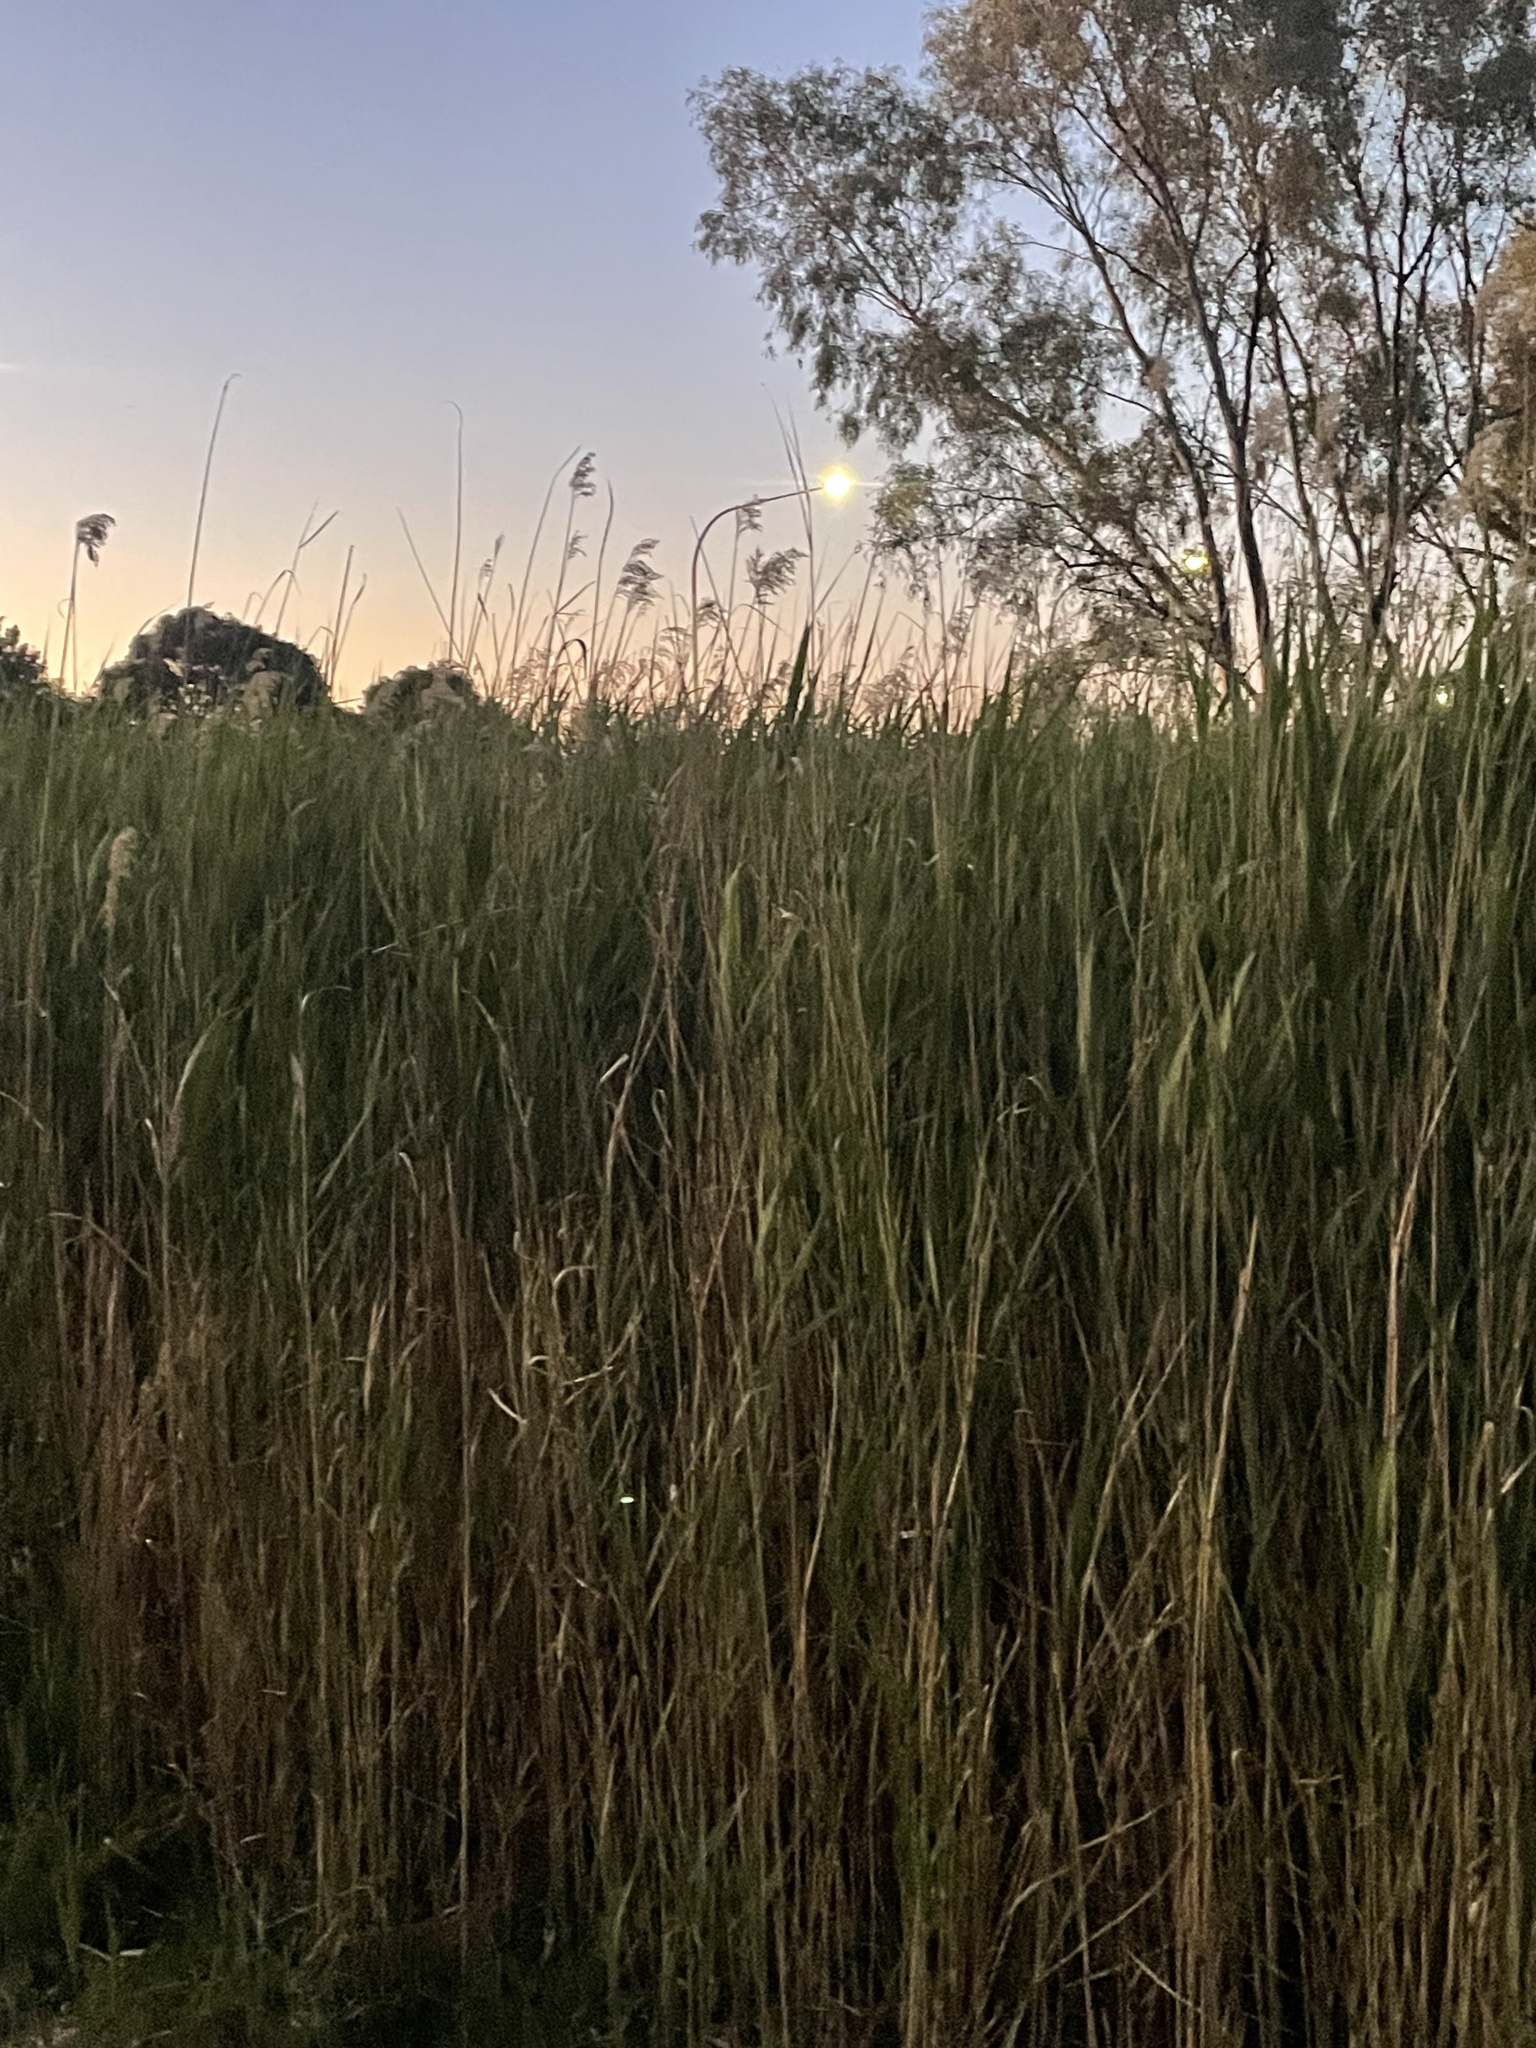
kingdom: Plantae
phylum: Tracheophyta
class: Liliopsida
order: Poales
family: Poaceae
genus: Phragmites
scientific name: Phragmites australis
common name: Common reed
